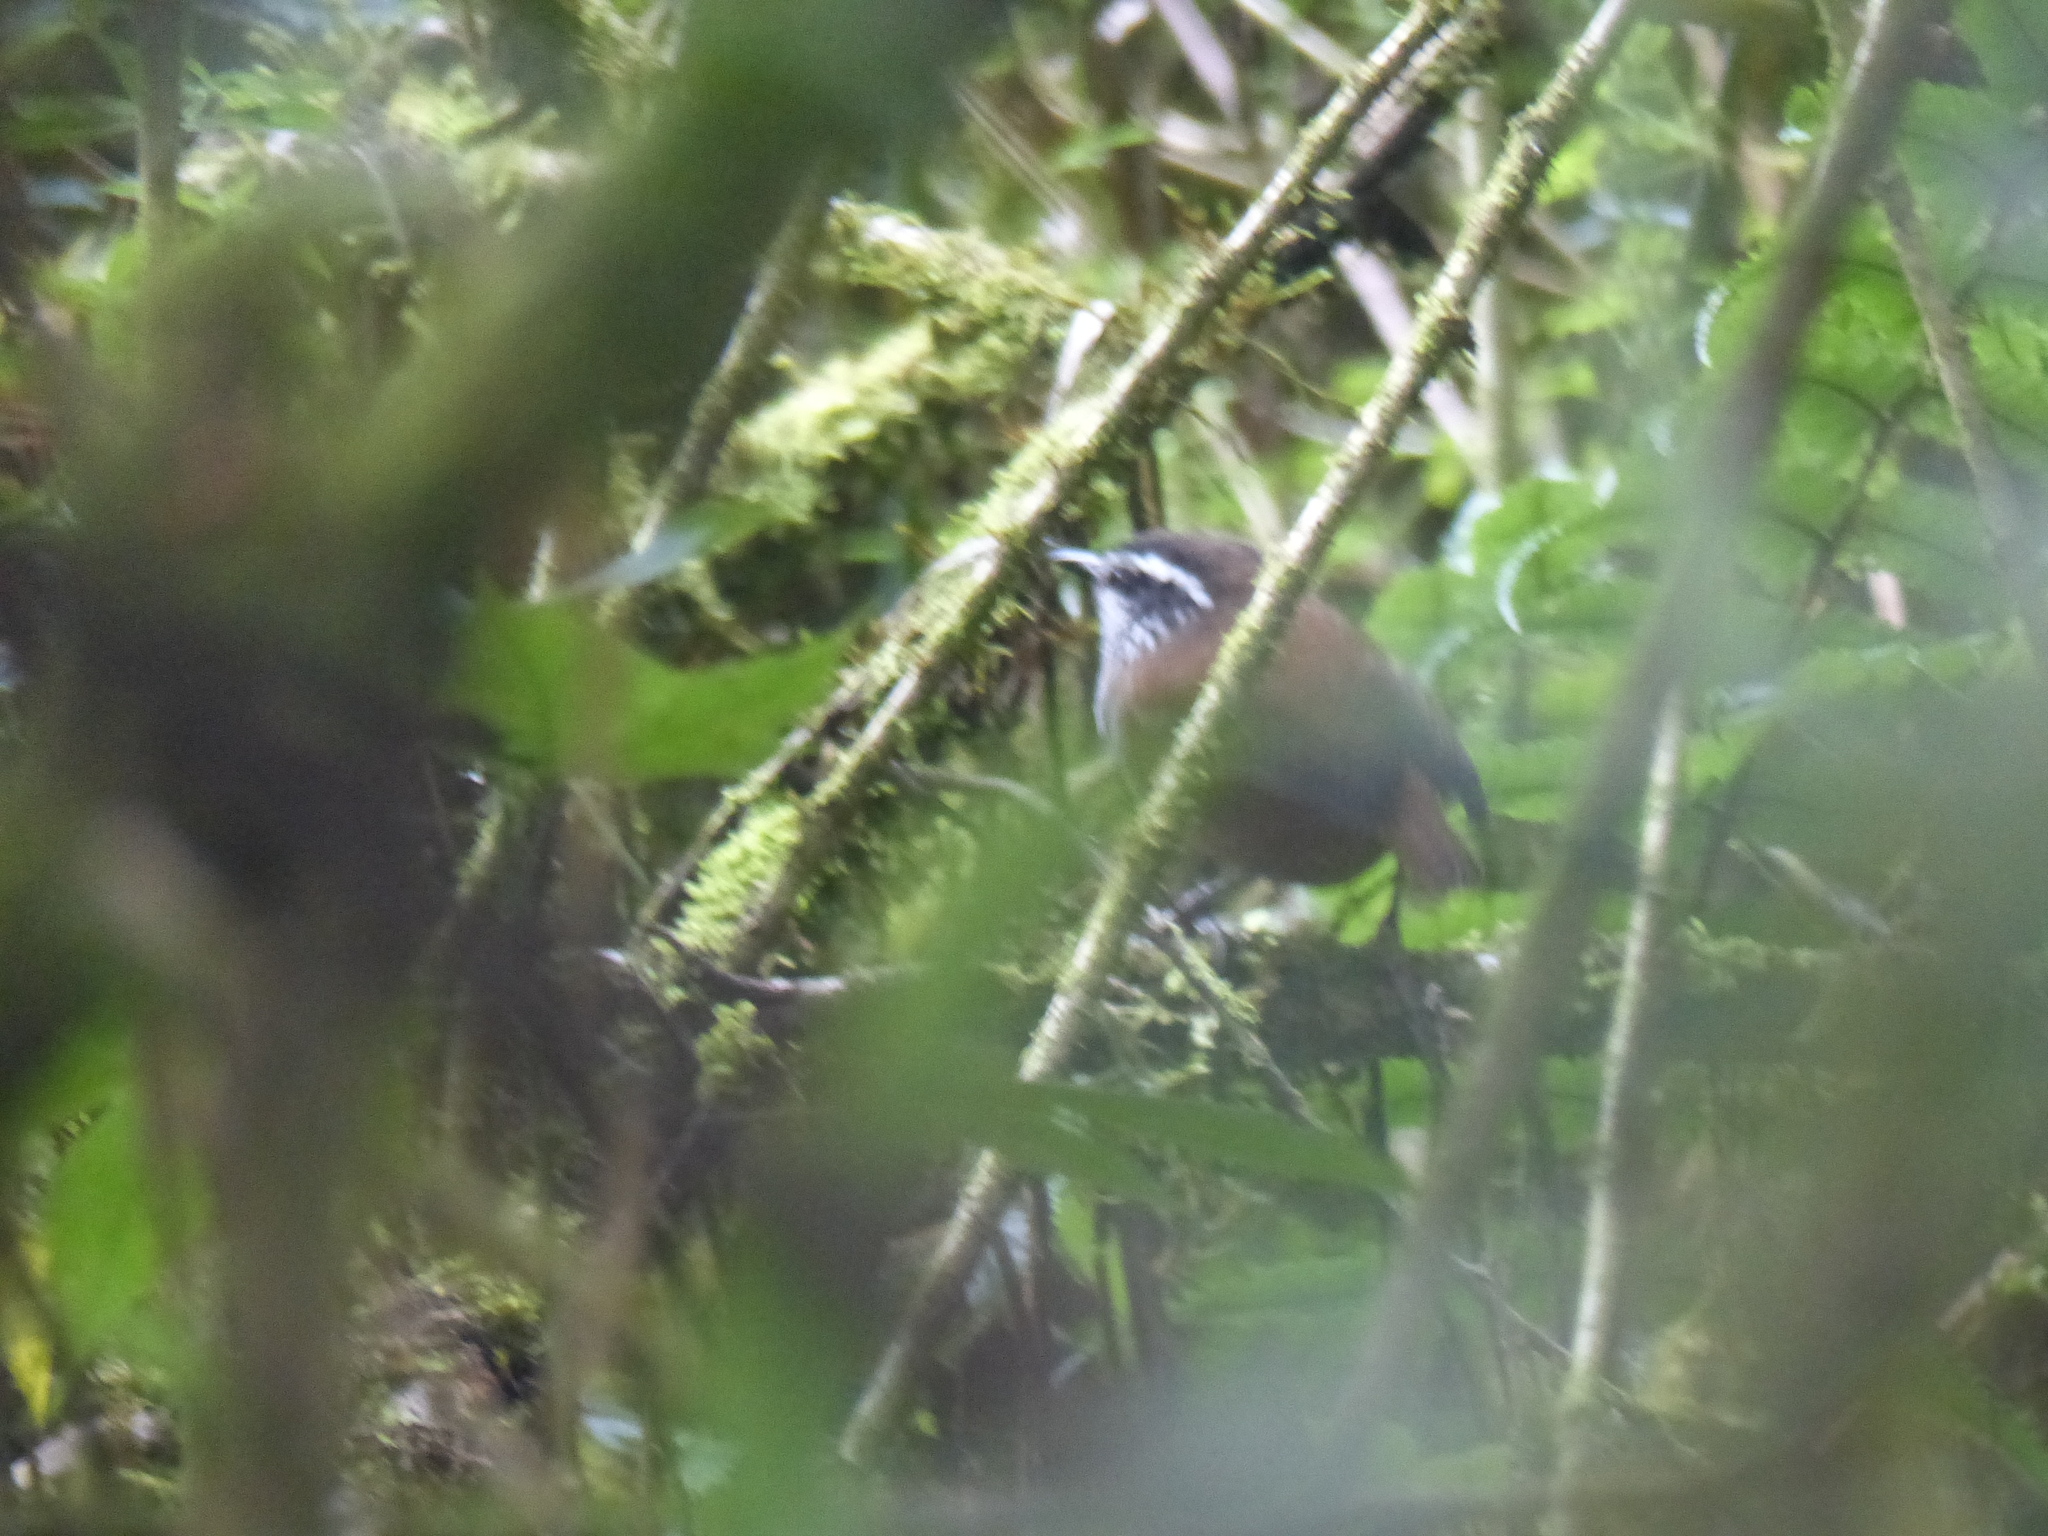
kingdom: Animalia
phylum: Chordata
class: Aves
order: Passeriformes
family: Troglodytidae
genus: Henicorhina
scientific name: Henicorhina leucophrys
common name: Gray-breasted wood-wren
